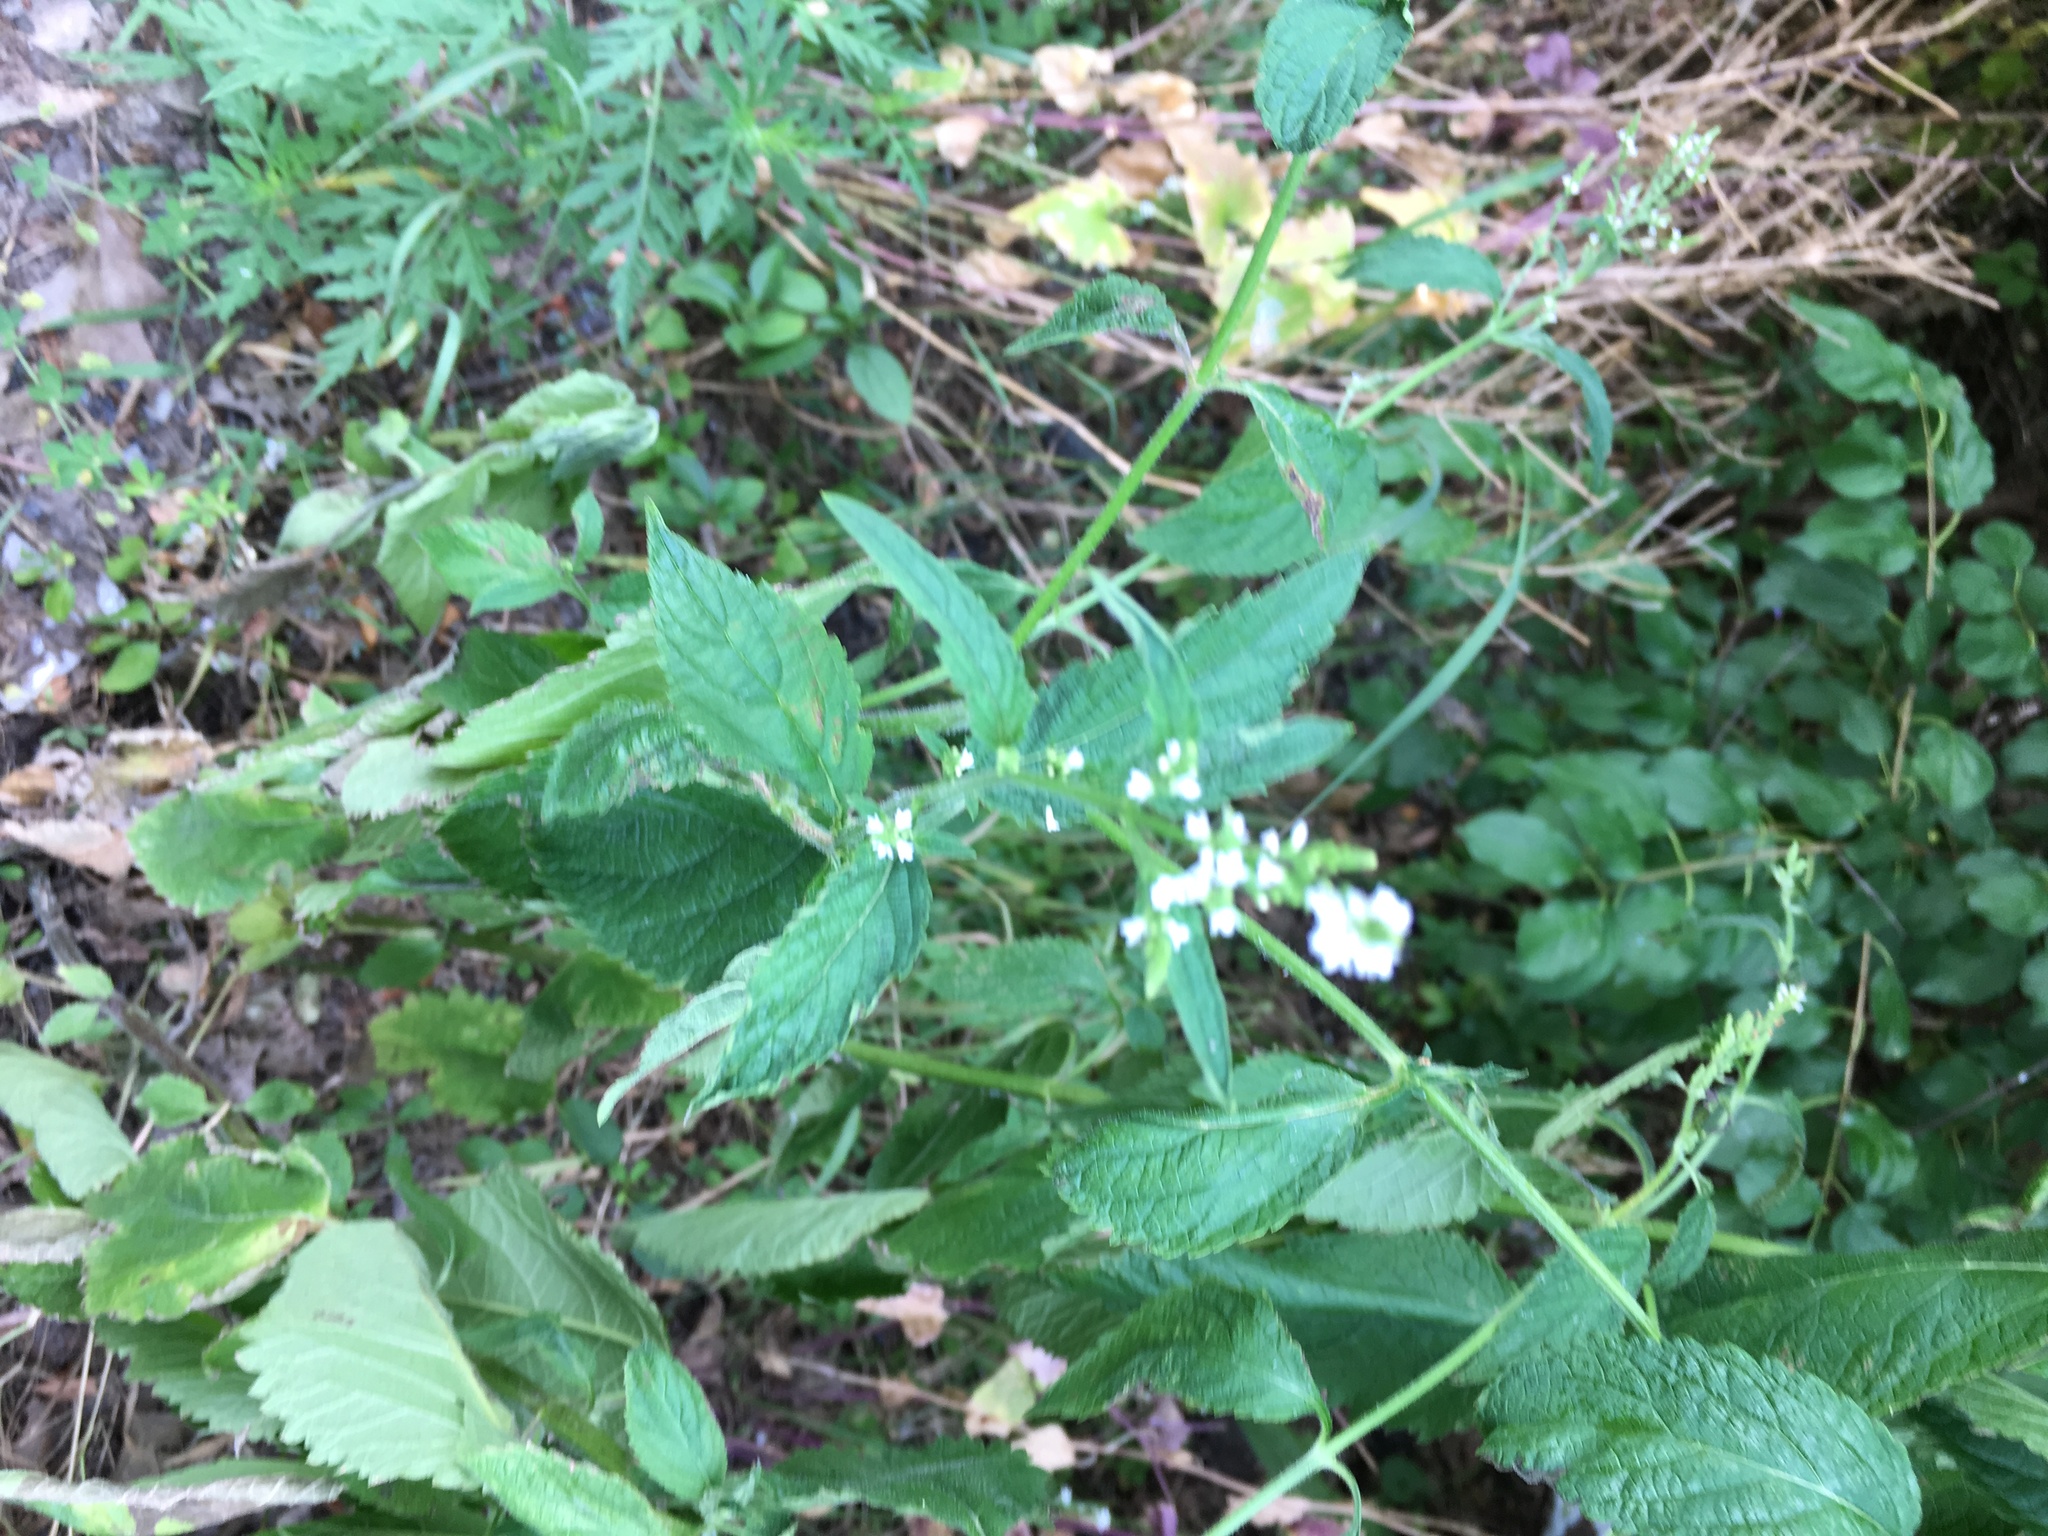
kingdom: Plantae
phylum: Tracheophyta
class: Magnoliopsida
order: Lamiales
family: Verbenaceae
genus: Verbena
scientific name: Verbena urticifolia
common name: Nettle-leaved vervain
